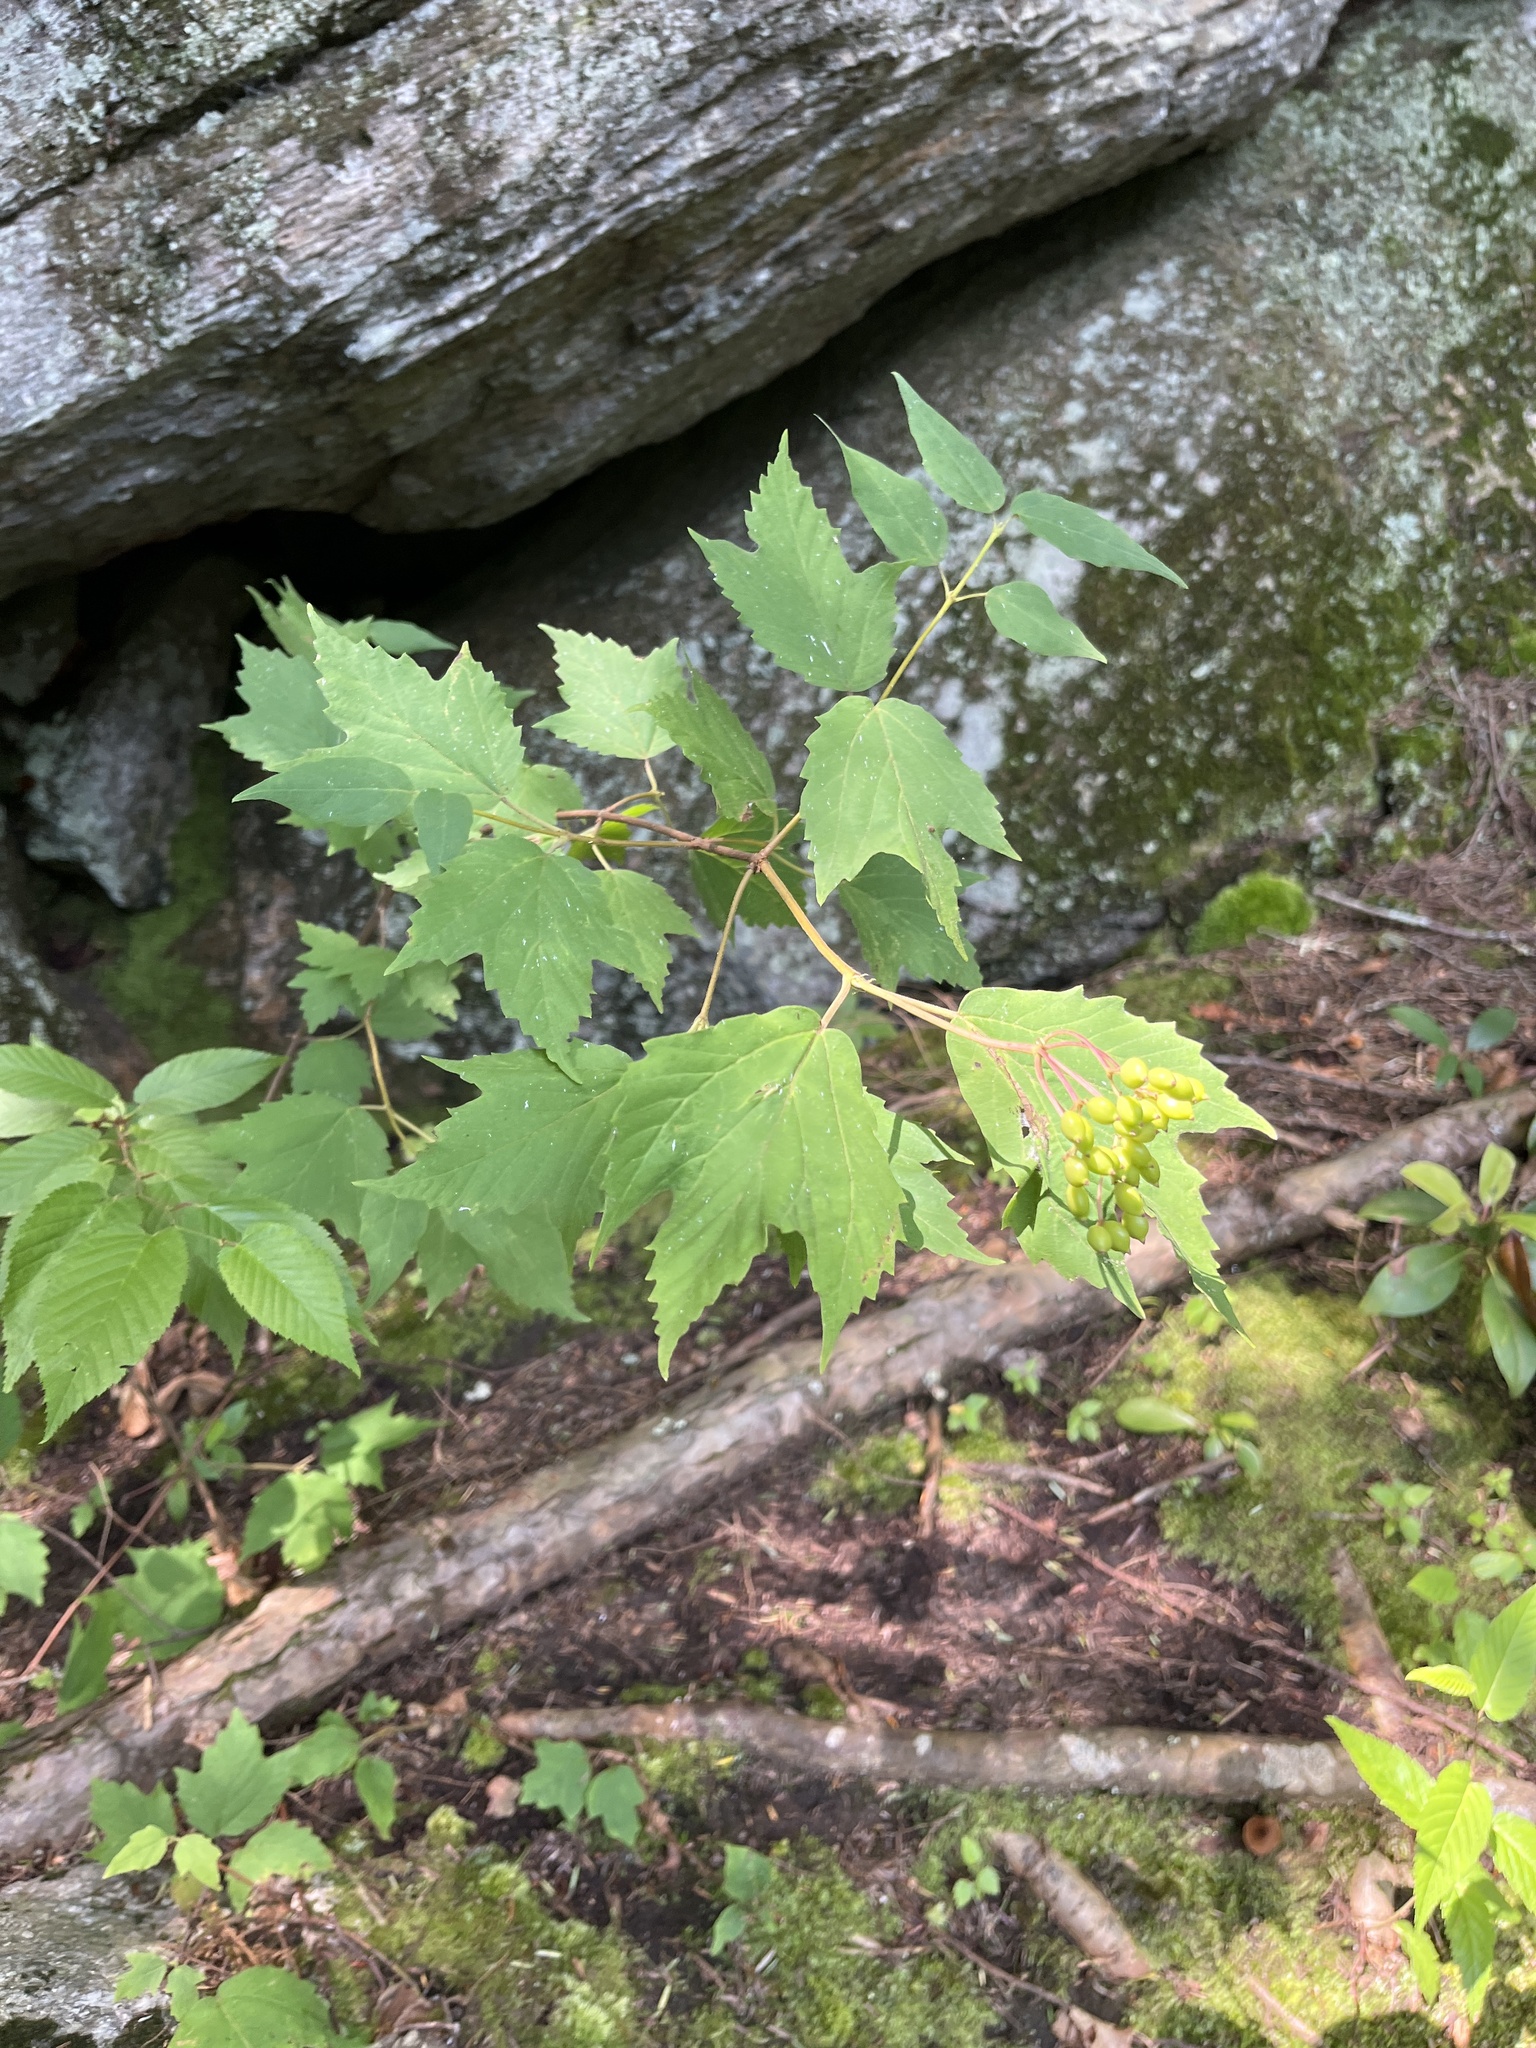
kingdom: Plantae
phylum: Tracheophyta
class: Magnoliopsida
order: Dipsacales
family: Viburnaceae
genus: Viburnum
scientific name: Viburnum acerifolium
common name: Dockmackie
